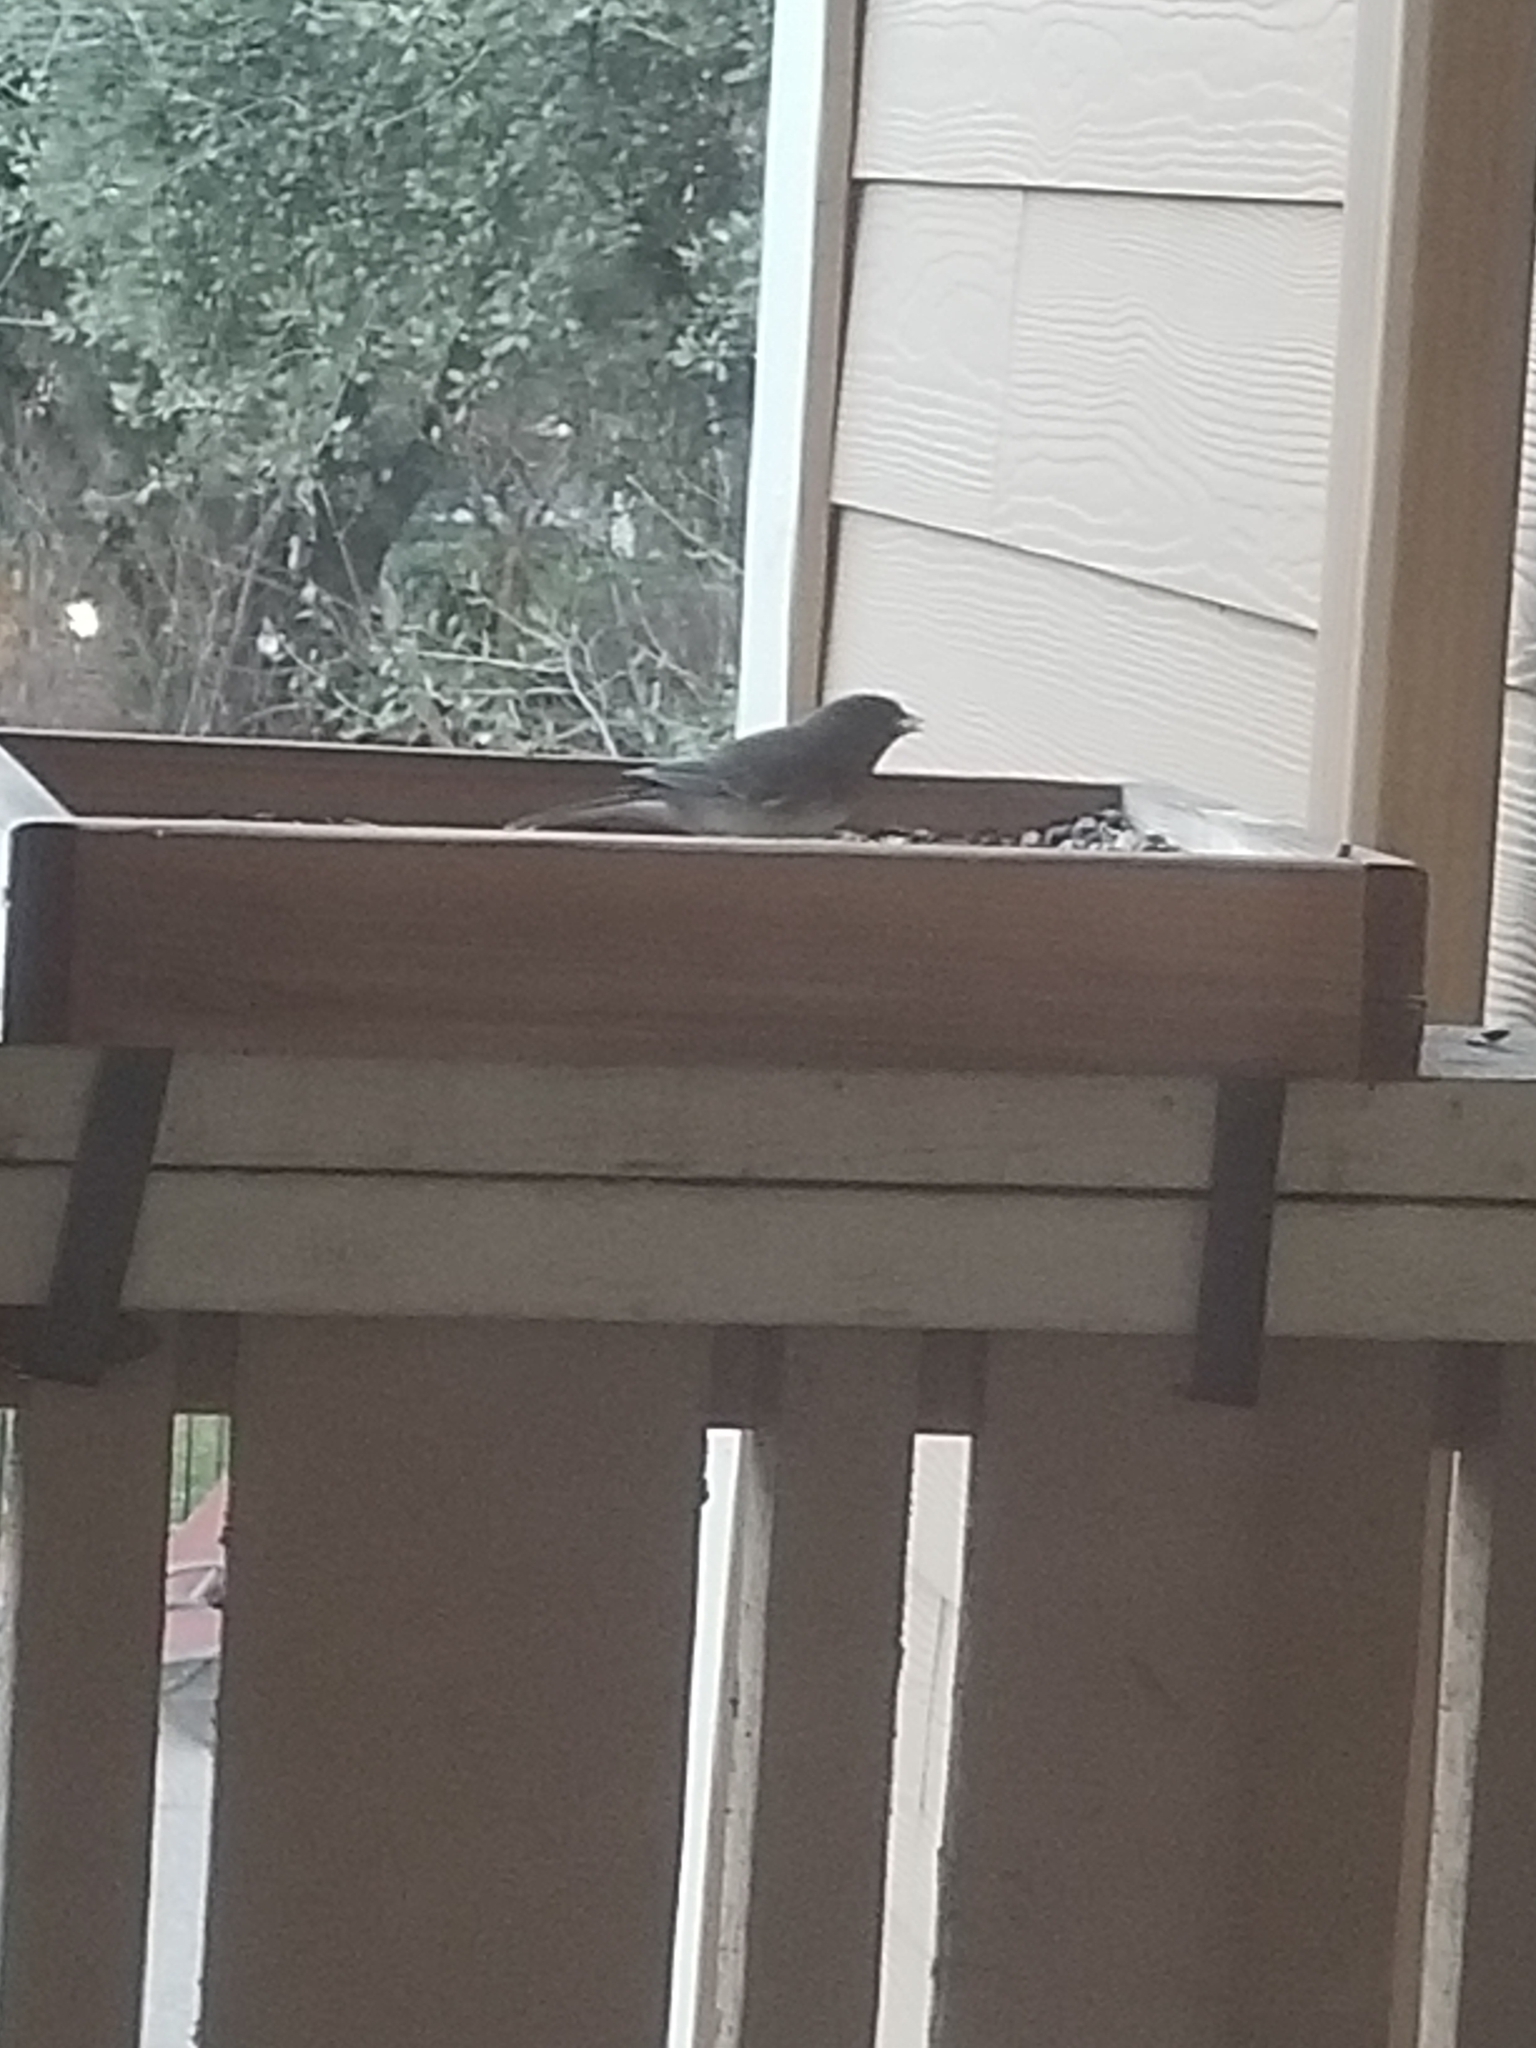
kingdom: Animalia
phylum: Chordata
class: Aves
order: Passeriformes
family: Passerellidae
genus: Junco
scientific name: Junco hyemalis
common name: Dark-eyed junco
